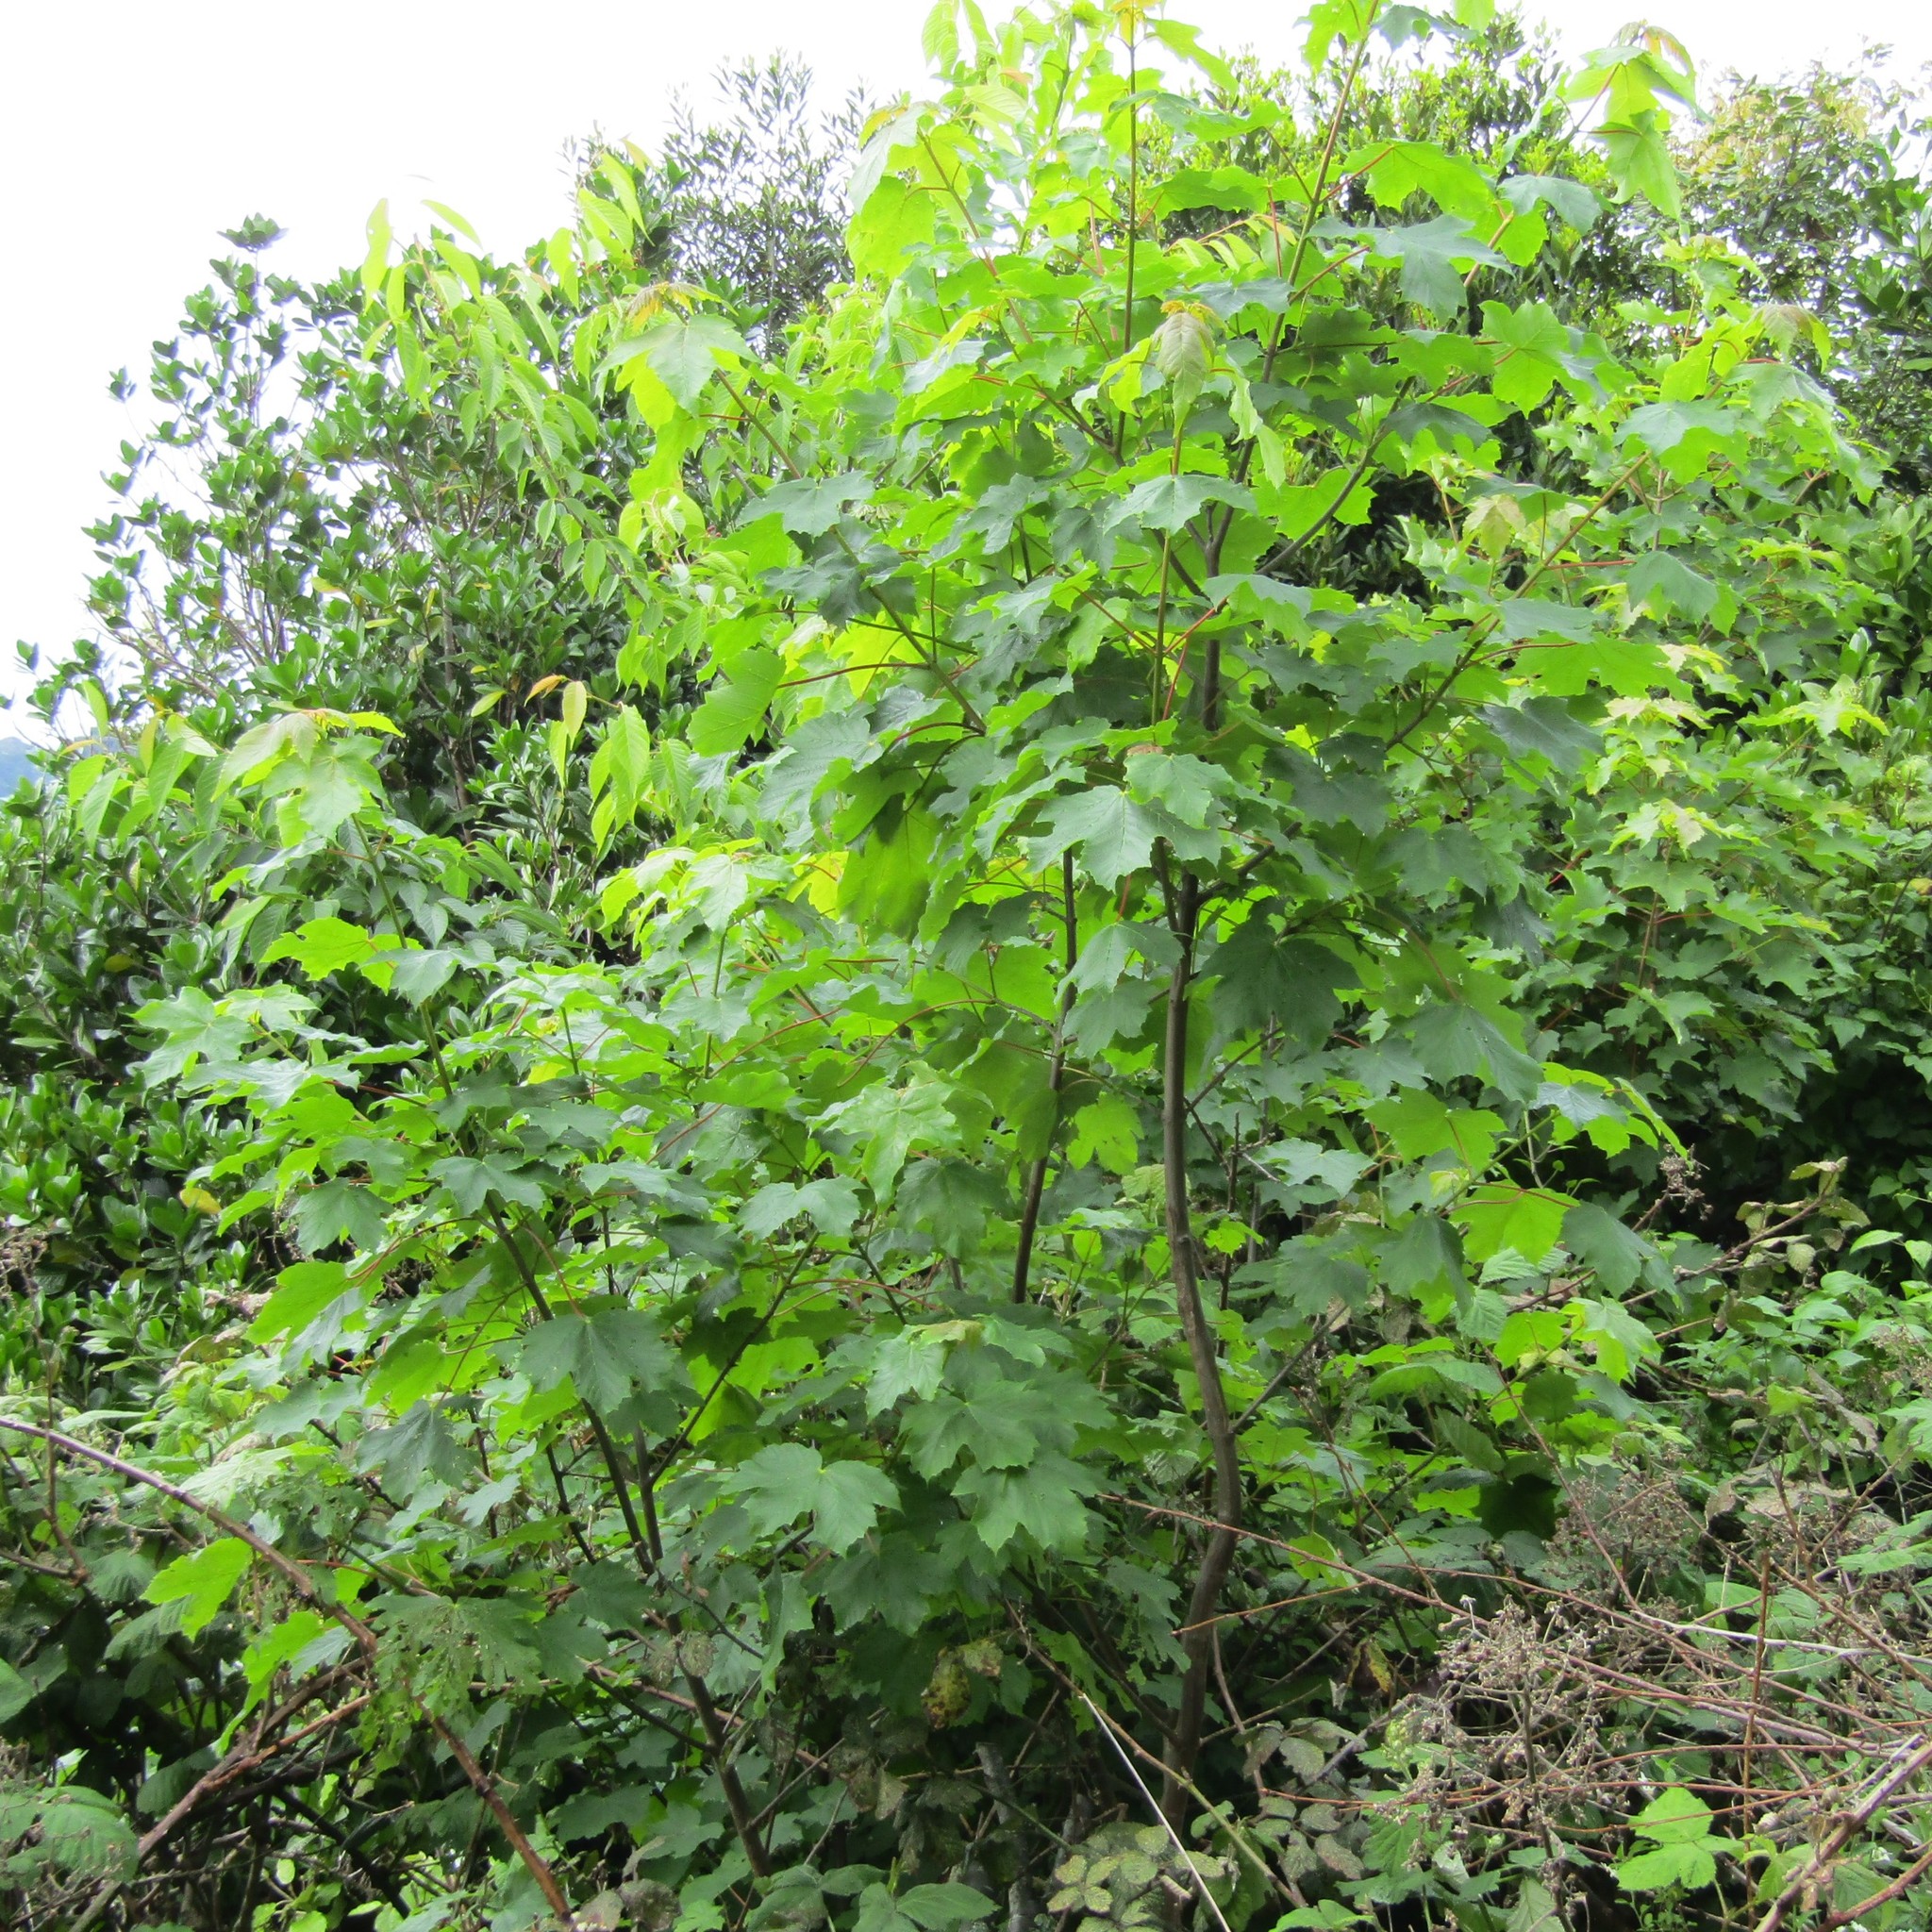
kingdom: Plantae
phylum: Tracheophyta
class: Magnoliopsida
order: Sapindales
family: Sapindaceae
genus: Acer
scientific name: Acer pseudoplatanus
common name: Sycamore
